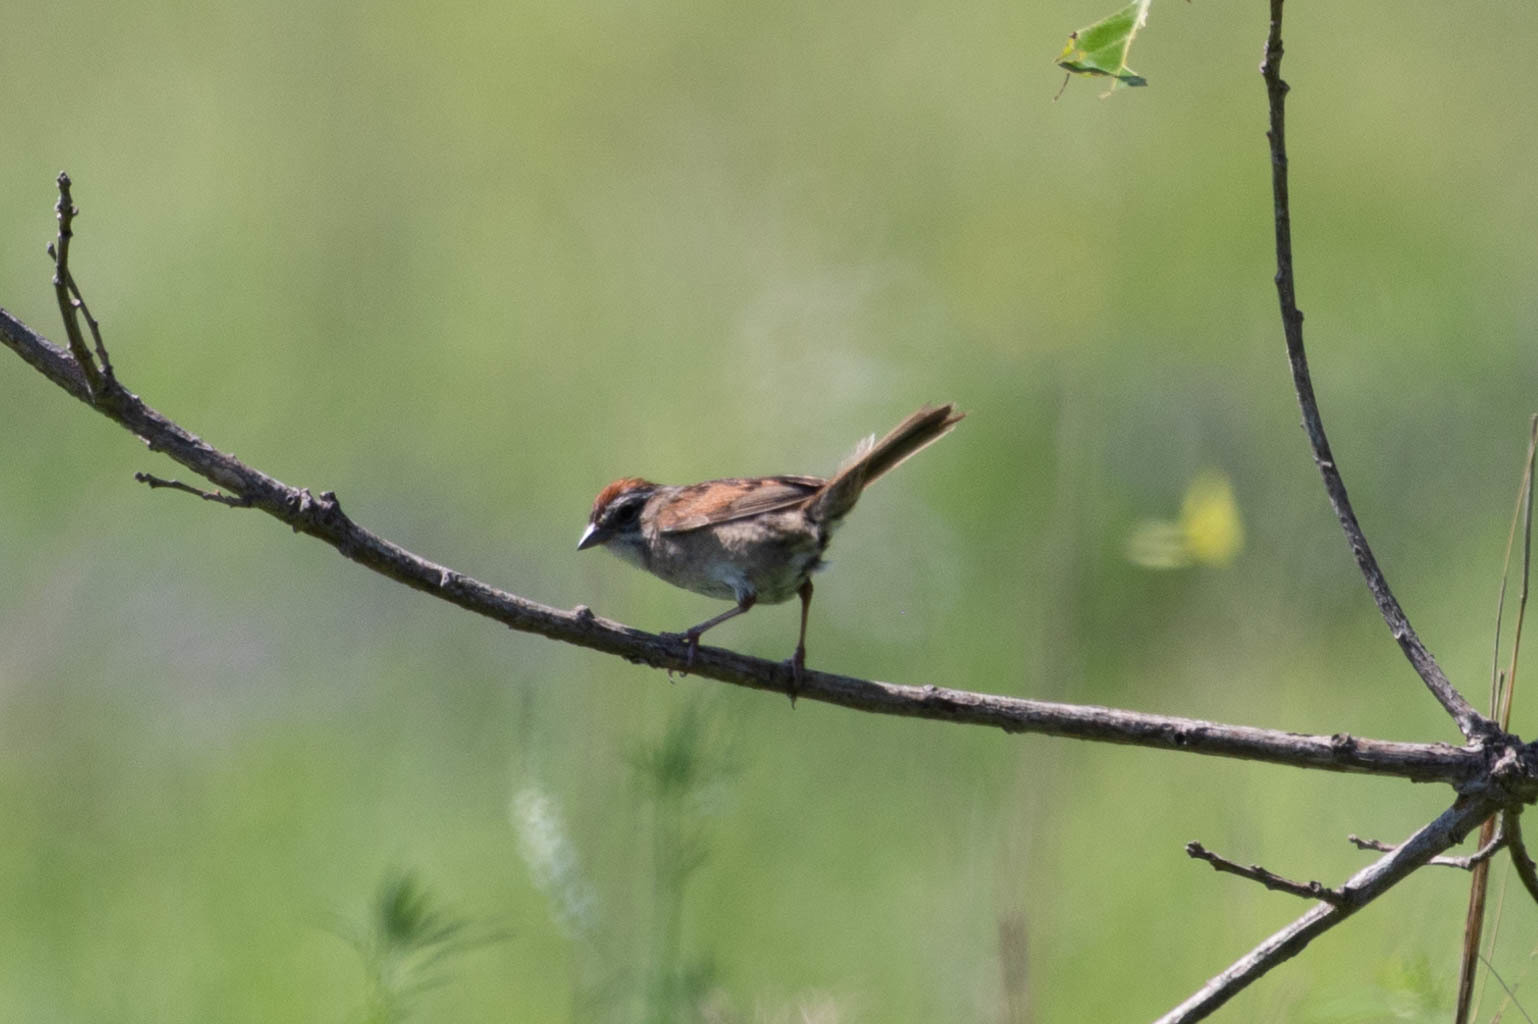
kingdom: Animalia
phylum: Chordata
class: Aves
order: Passeriformes
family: Passerellidae
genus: Melospiza
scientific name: Melospiza georgiana
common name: Swamp sparrow
